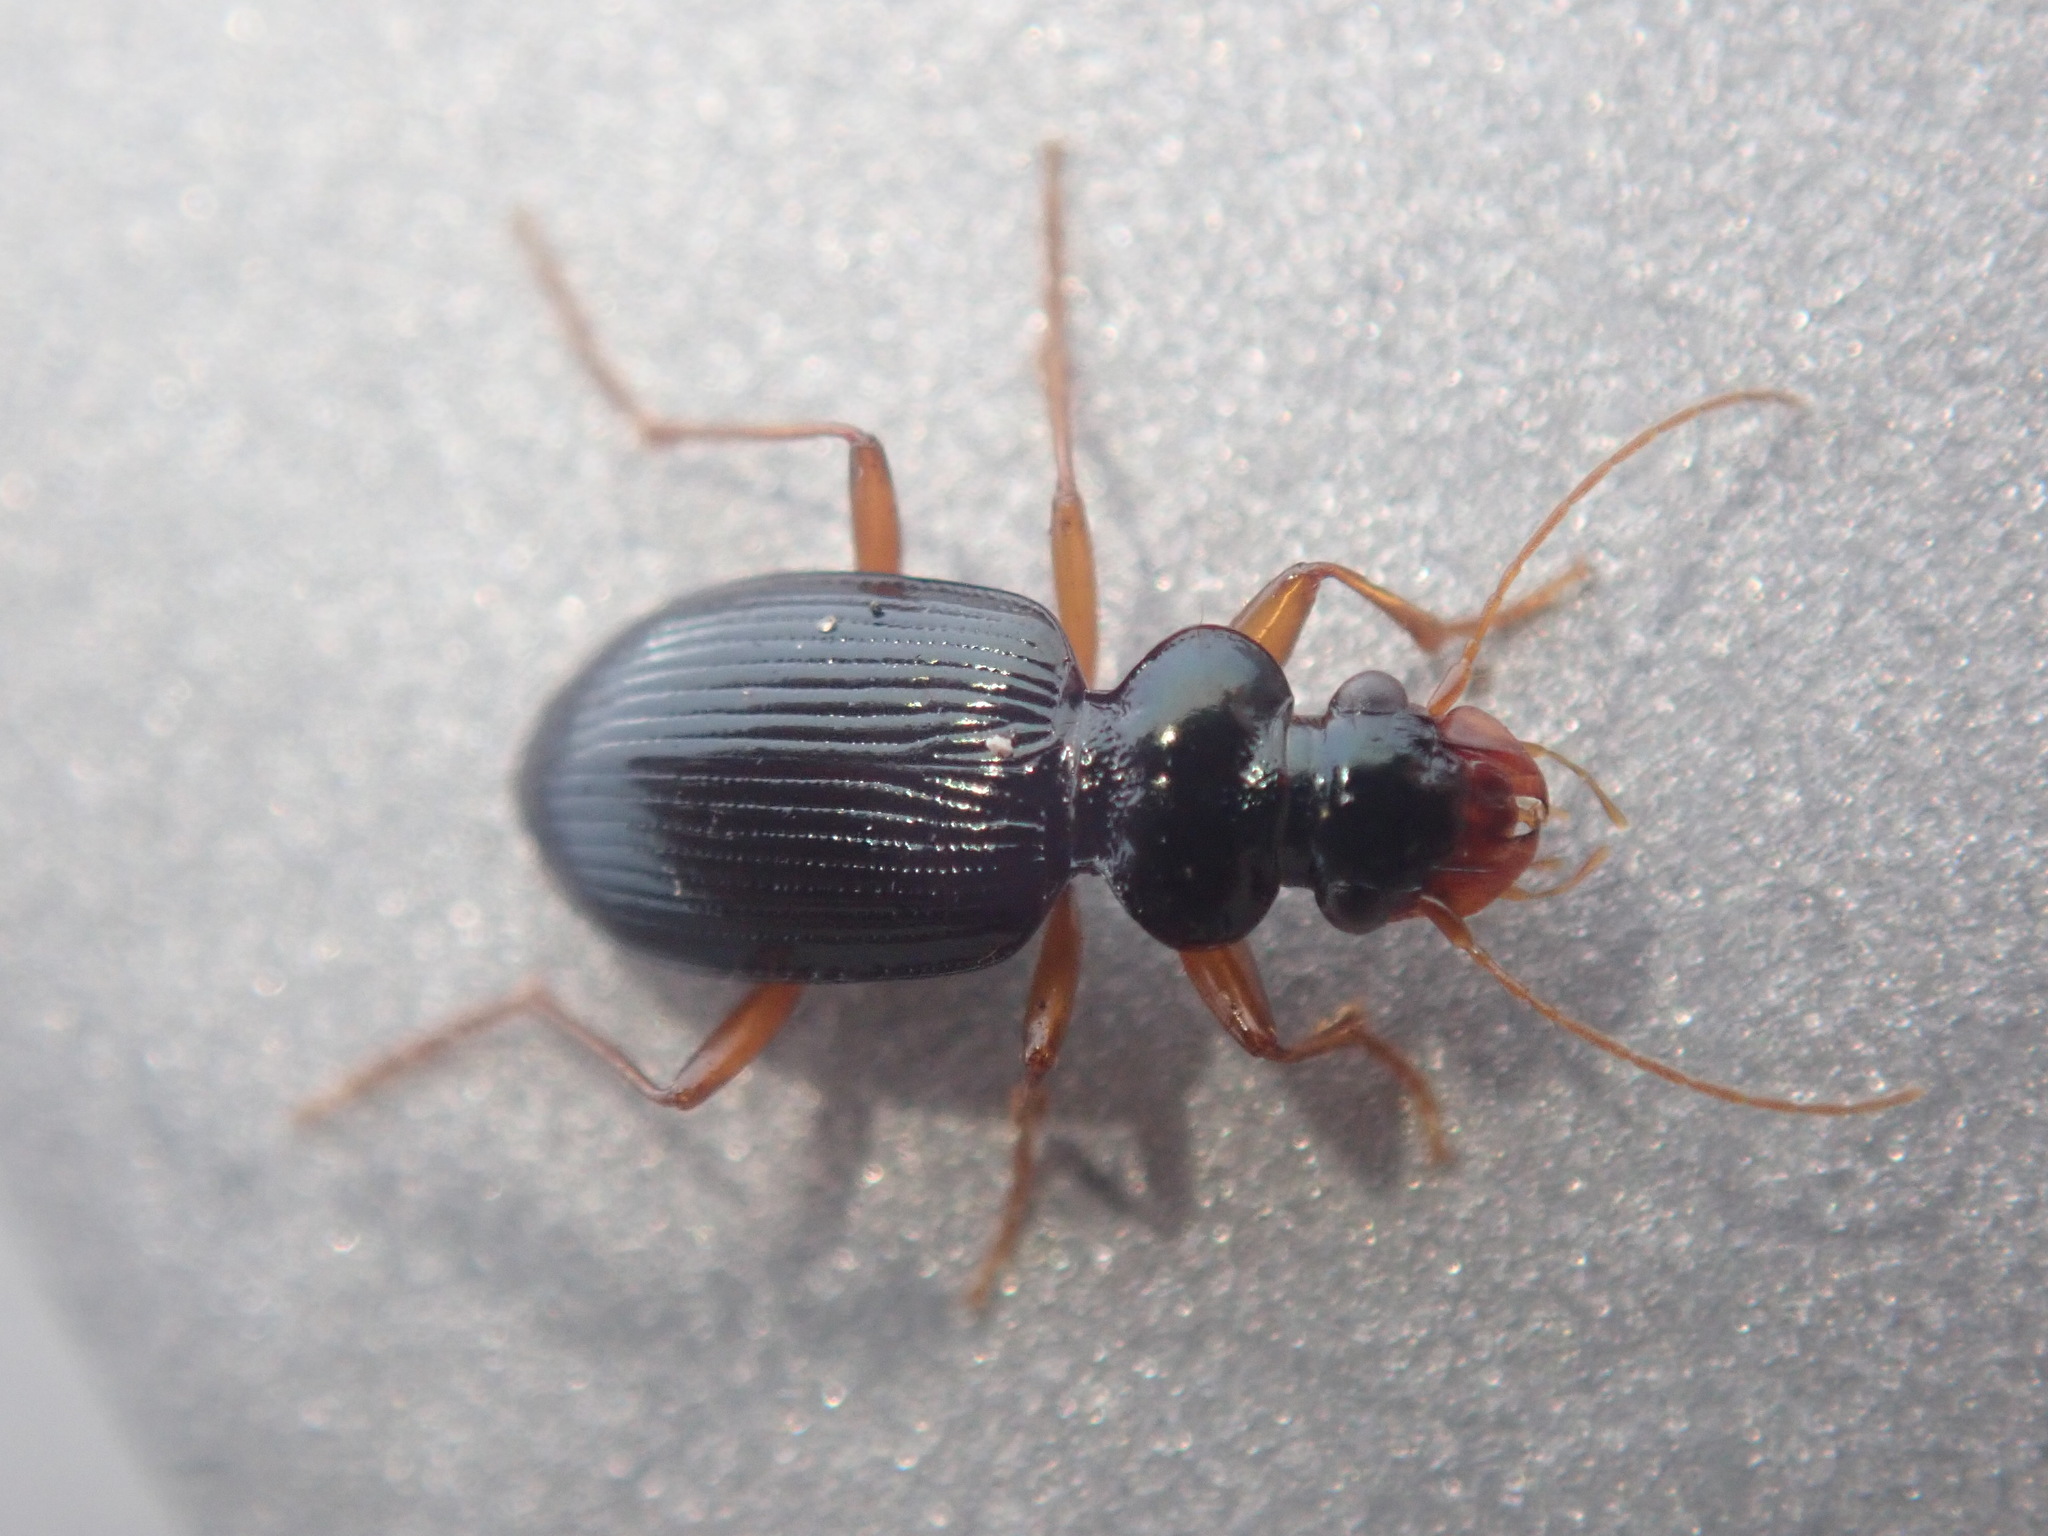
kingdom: Animalia
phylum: Arthropoda
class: Insecta
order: Coleoptera
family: Carabidae
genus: Leistus
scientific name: Leistus fulvibarbis
